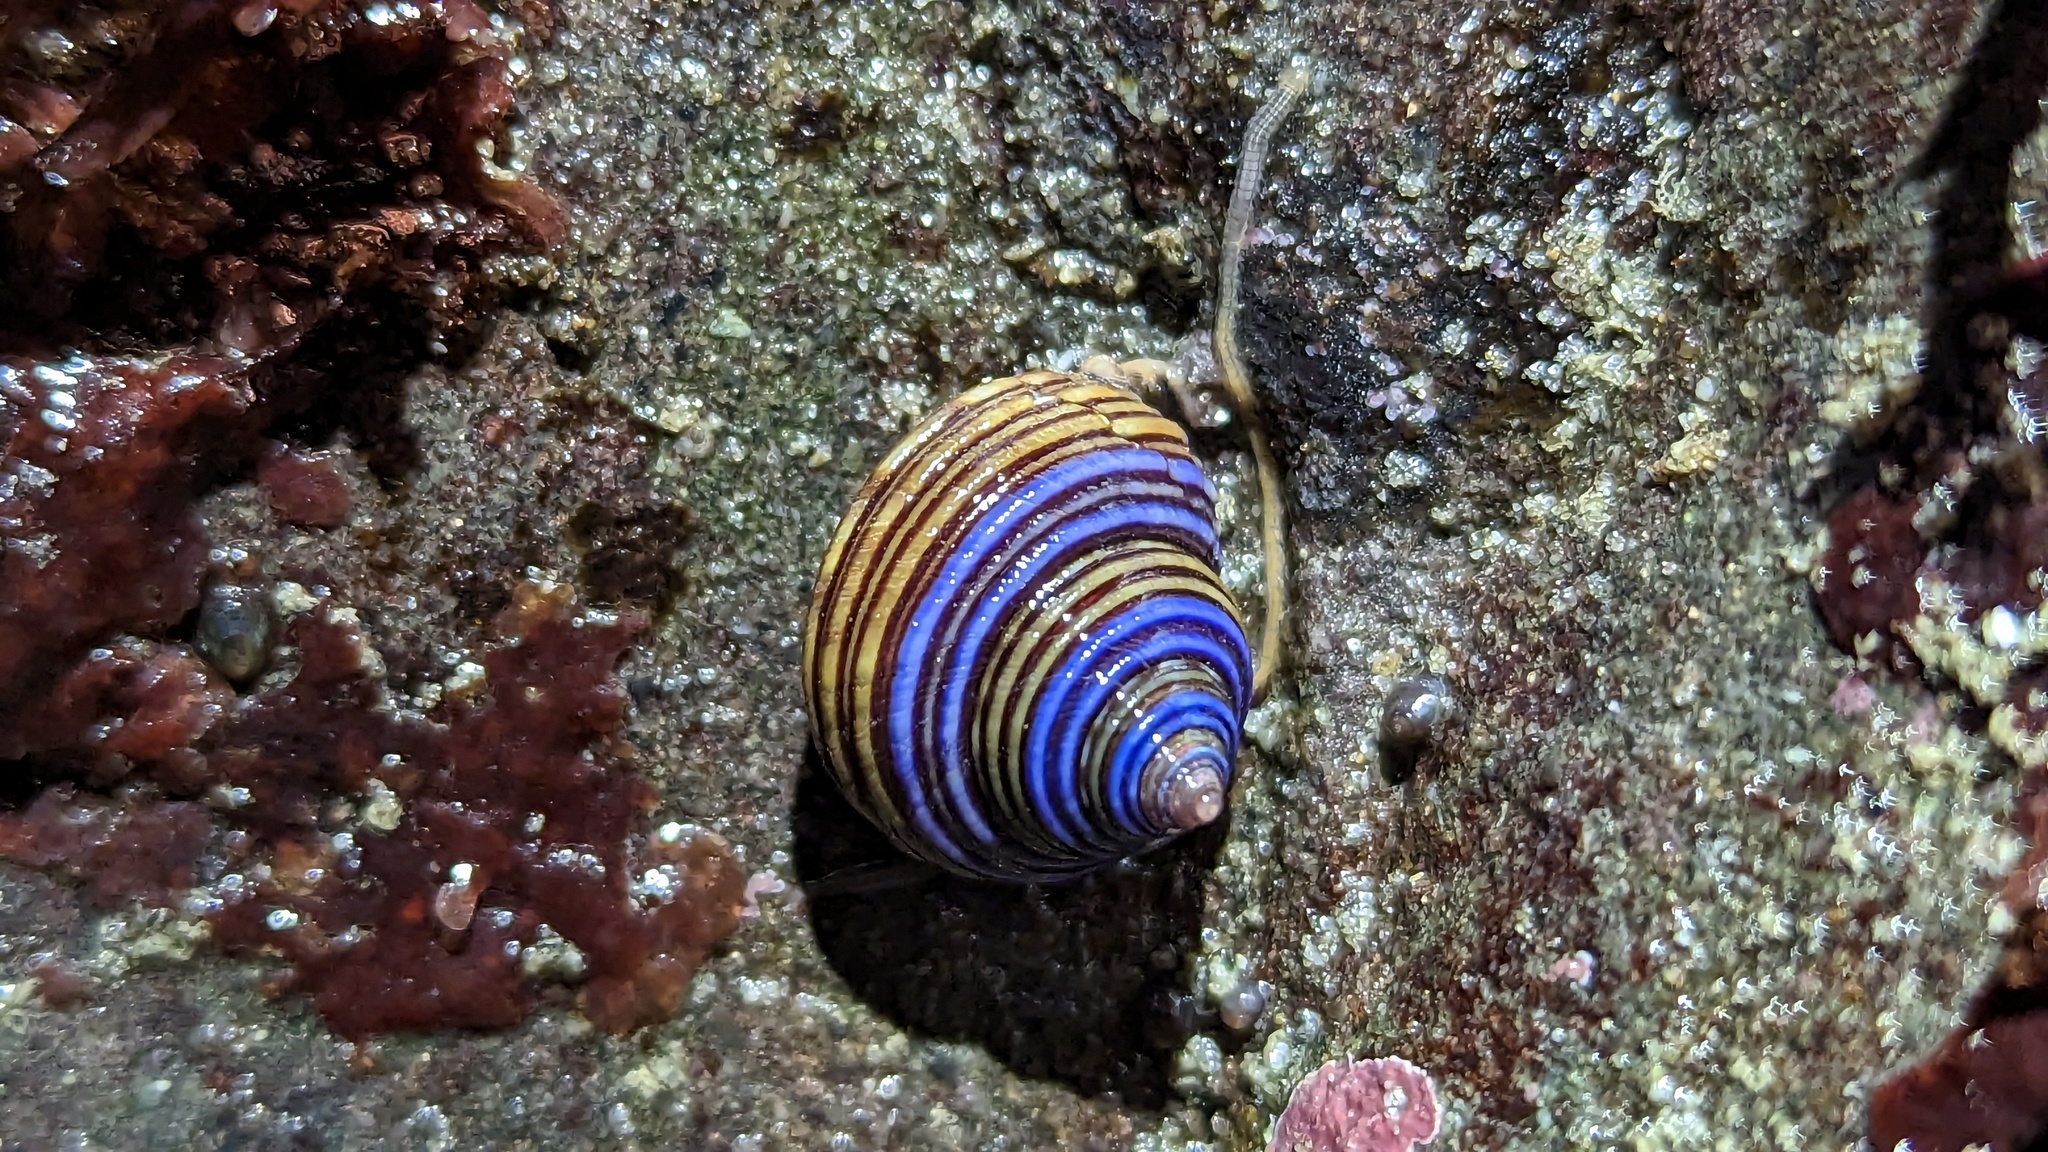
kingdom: Animalia
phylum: Mollusca
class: Gastropoda
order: Trochida
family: Calliostomatidae
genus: Calliostoma
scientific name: Calliostoma ligatum
